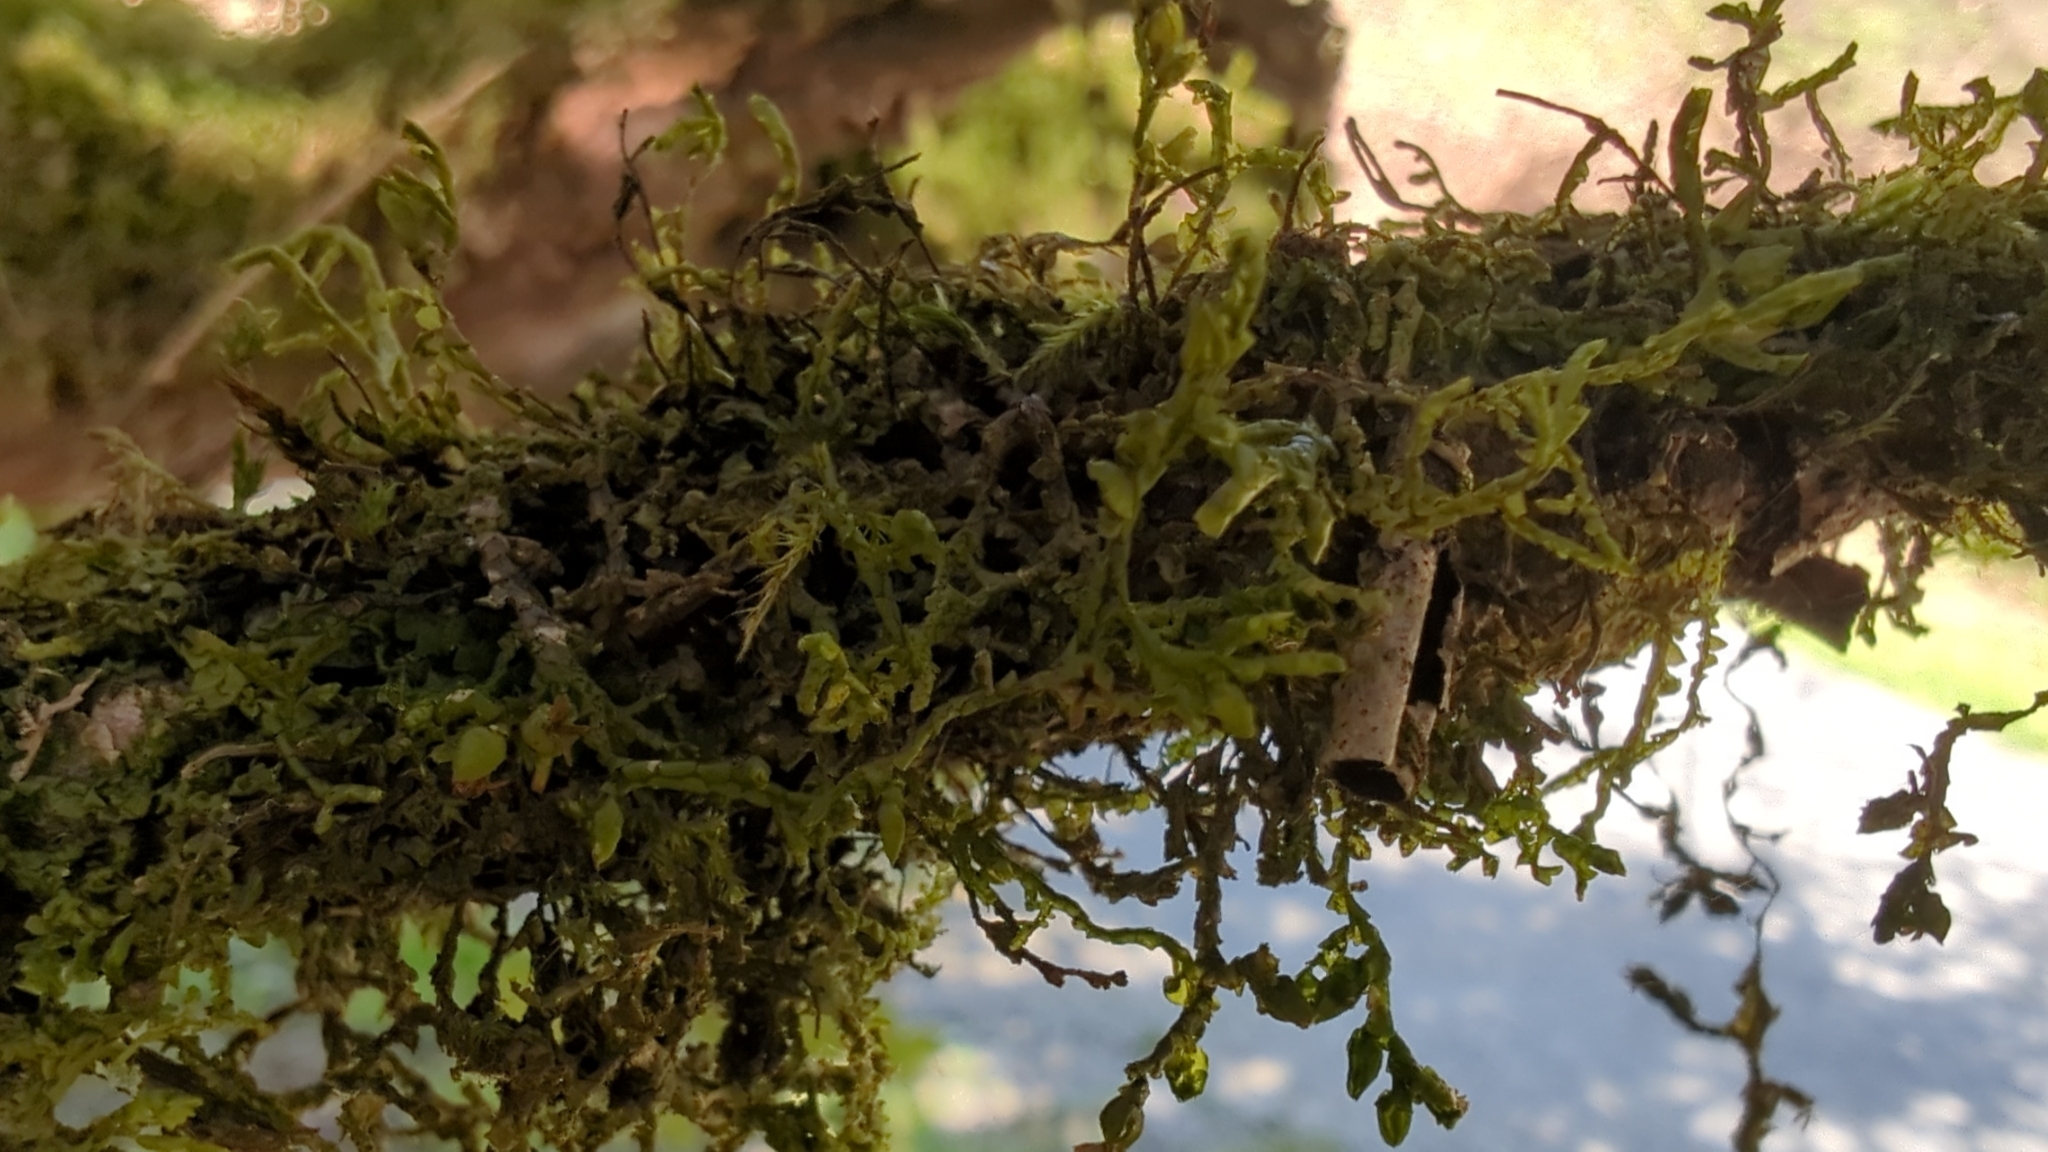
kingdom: Plantae
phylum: Marchantiophyta
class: Jungermanniopsida
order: Porellales
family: Porellaceae
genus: Porella
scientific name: Porella navicularis
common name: Tree ruffle liverwort
